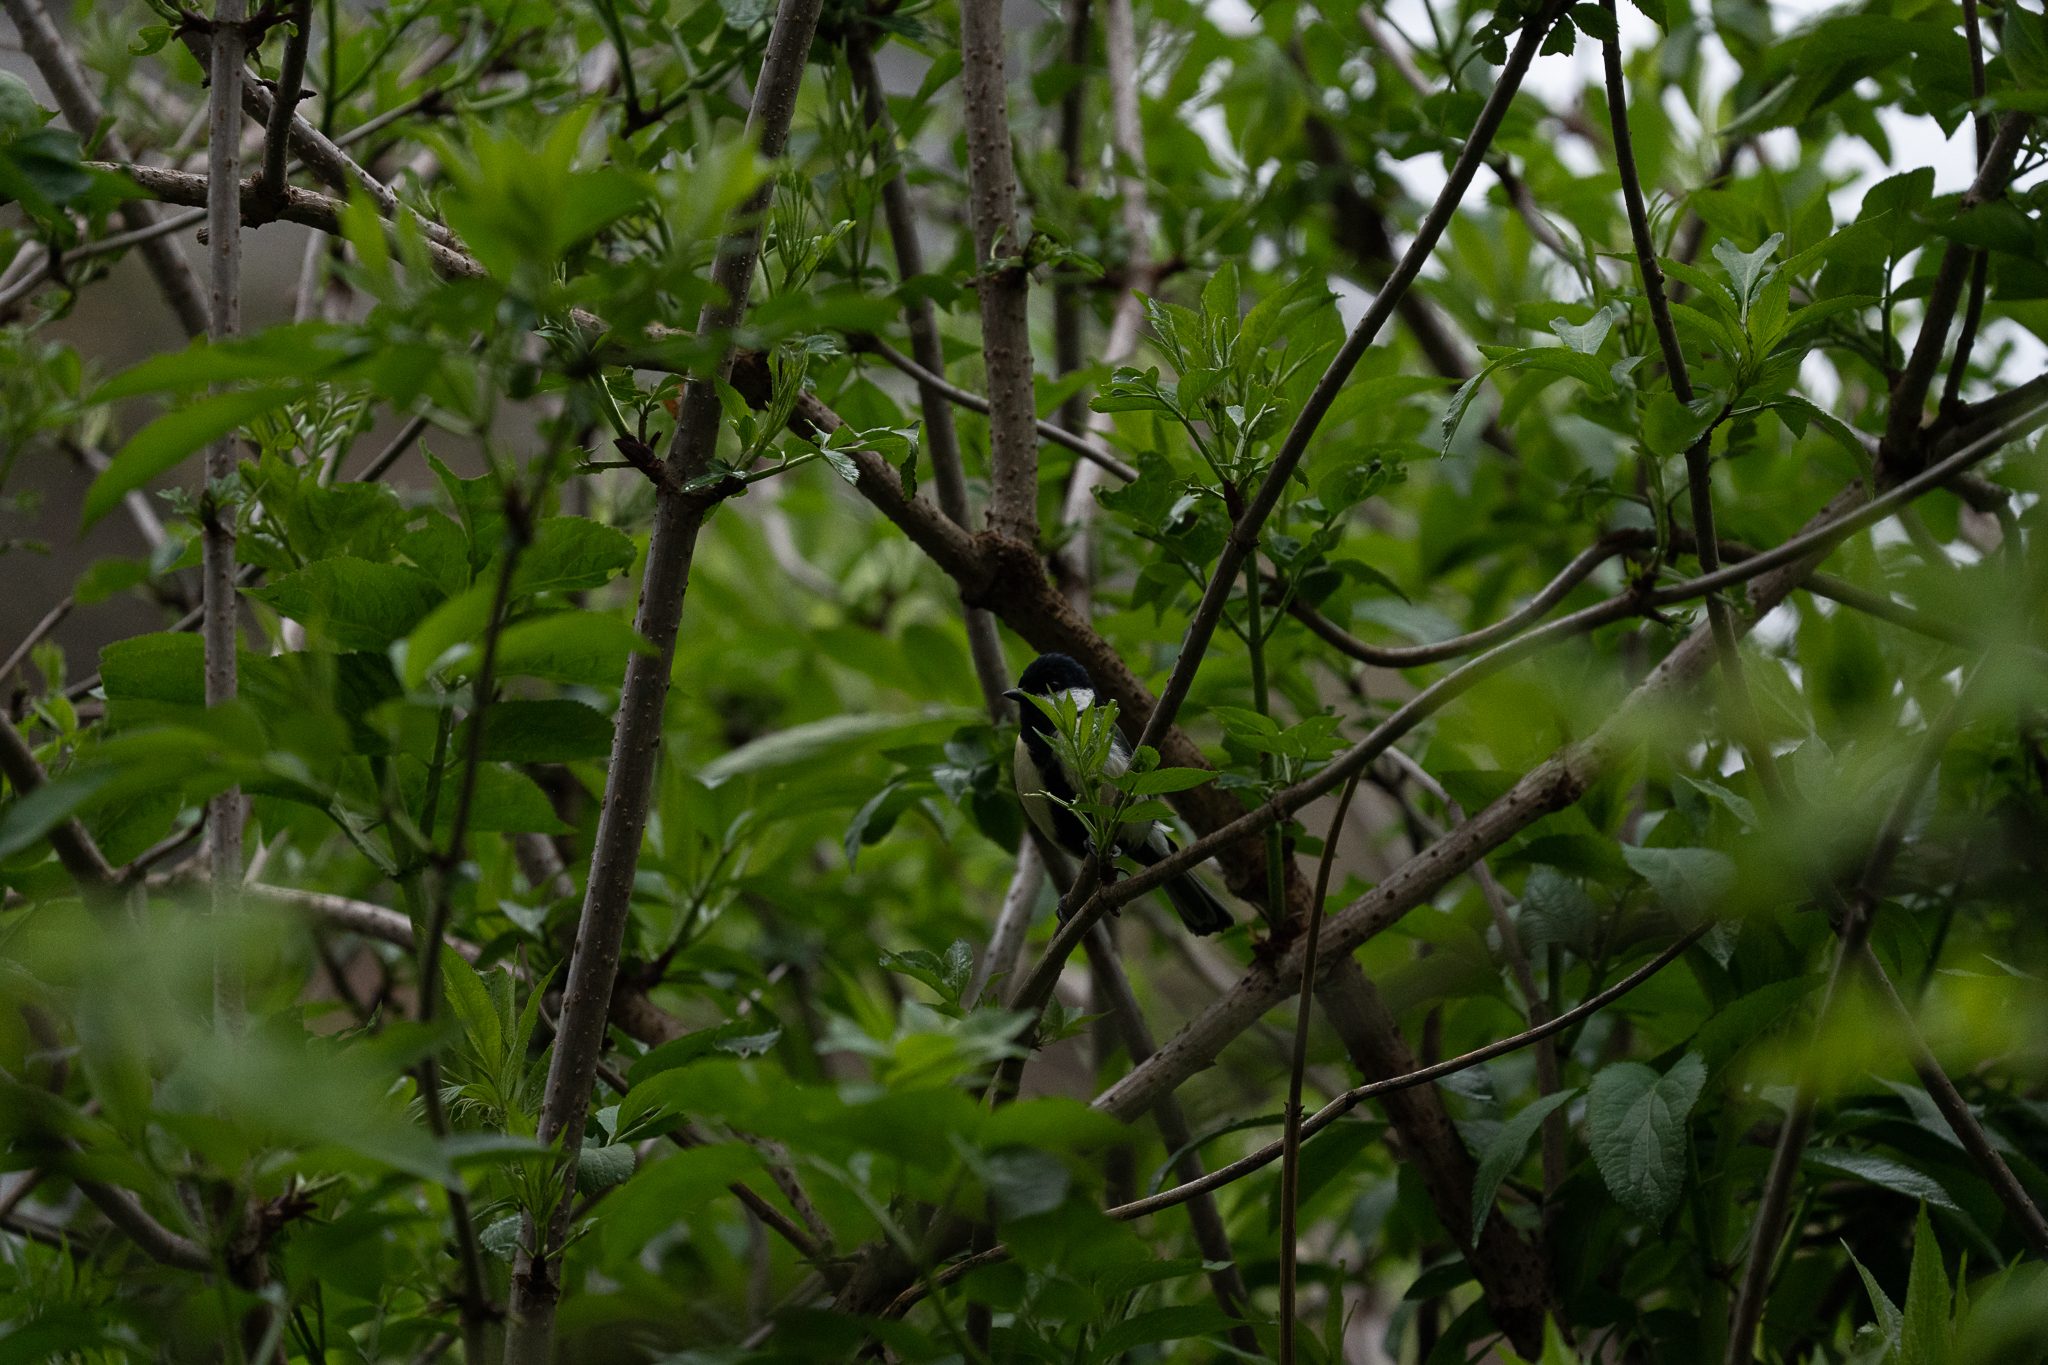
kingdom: Animalia
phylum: Chordata
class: Aves
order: Passeriformes
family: Paridae
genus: Parus
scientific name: Parus major
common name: Great tit
